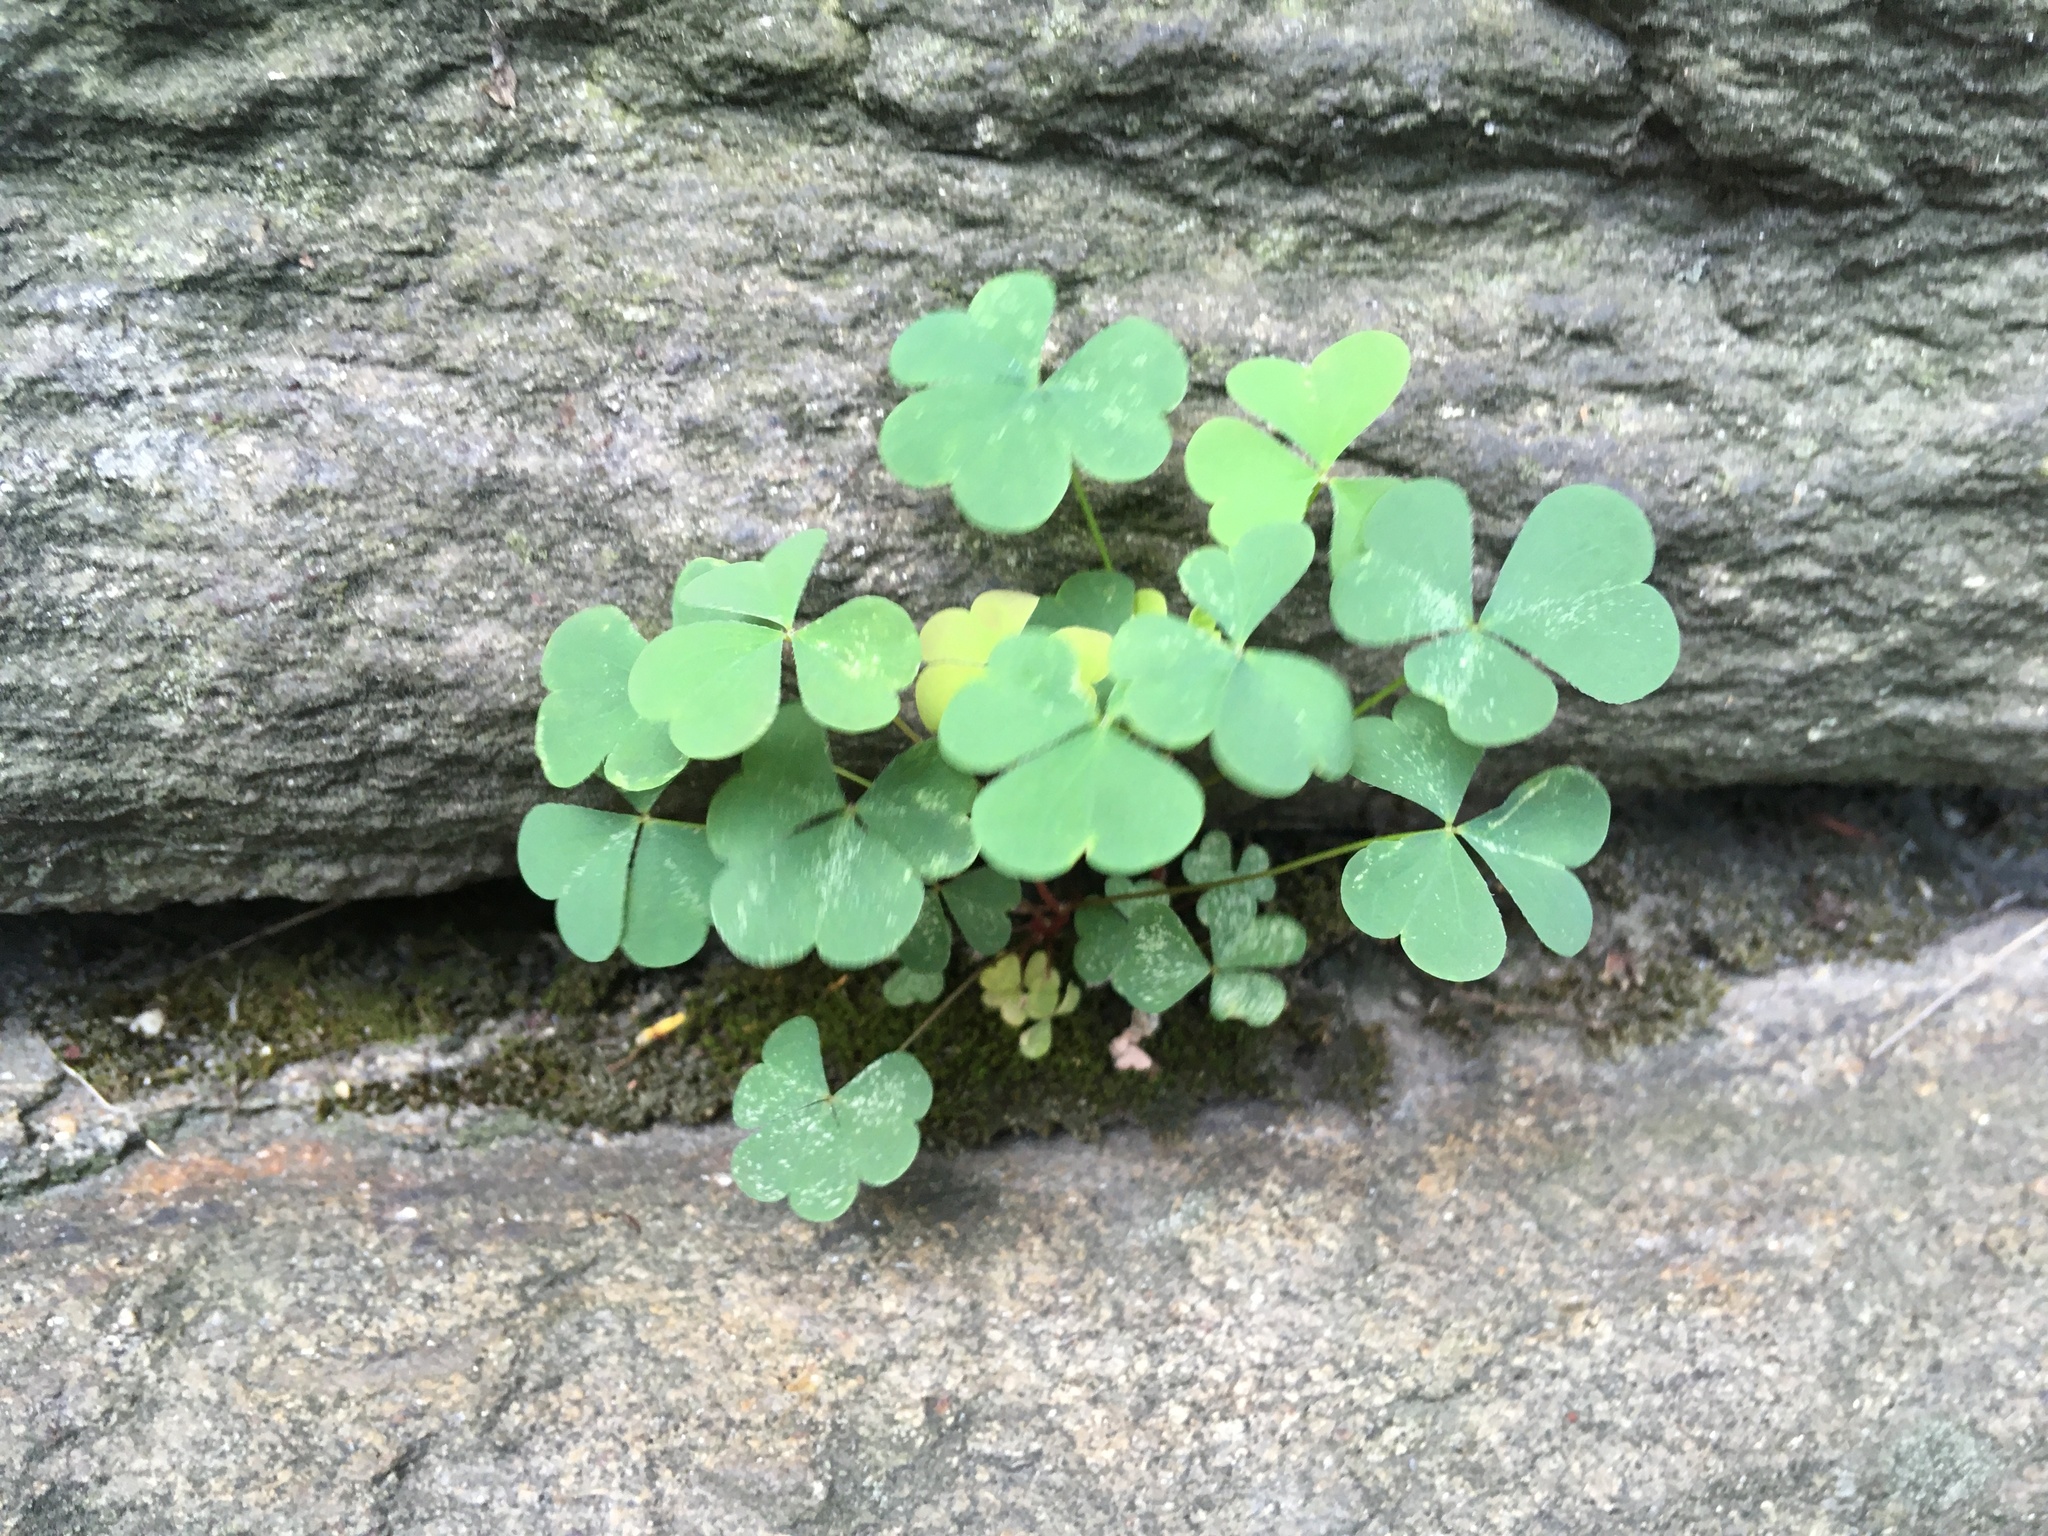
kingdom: Plantae
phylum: Tracheophyta
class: Magnoliopsida
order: Oxalidales
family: Oxalidaceae
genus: Oxalis
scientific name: Oxalis corniculata
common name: Procumbent yellow-sorrel
